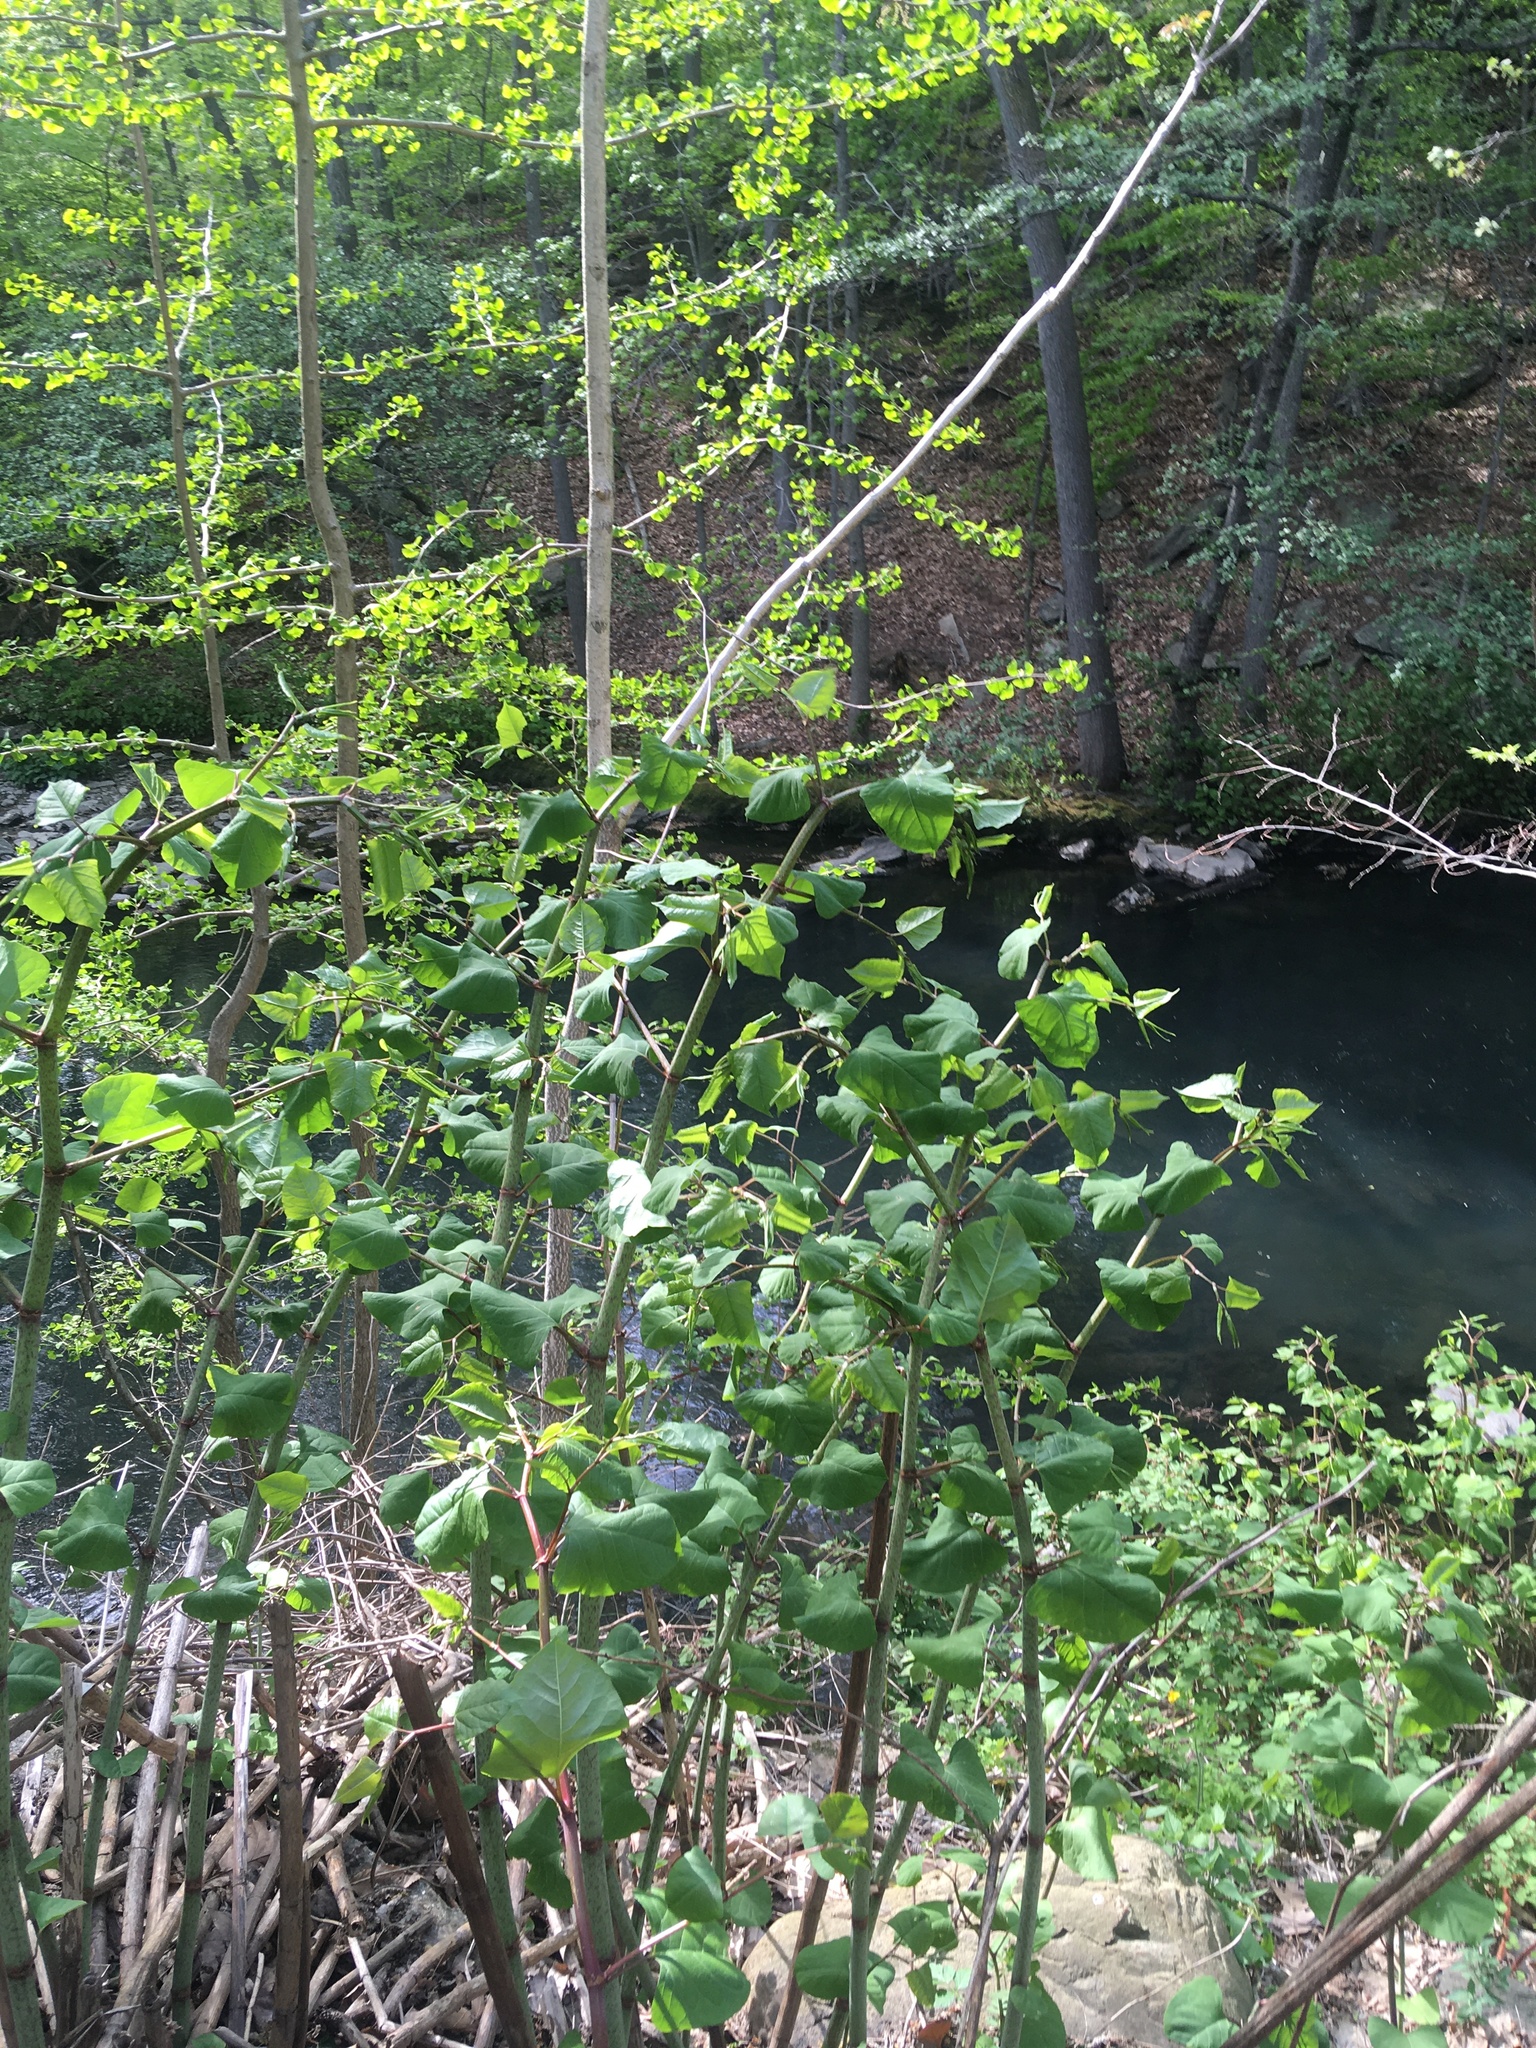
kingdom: Plantae
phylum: Tracheophyta
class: Ginkgoopsida
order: Ginkgoales
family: Ginkgoaceae
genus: Ginkgo
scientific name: Ginkgo biloba
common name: Ginkgo
